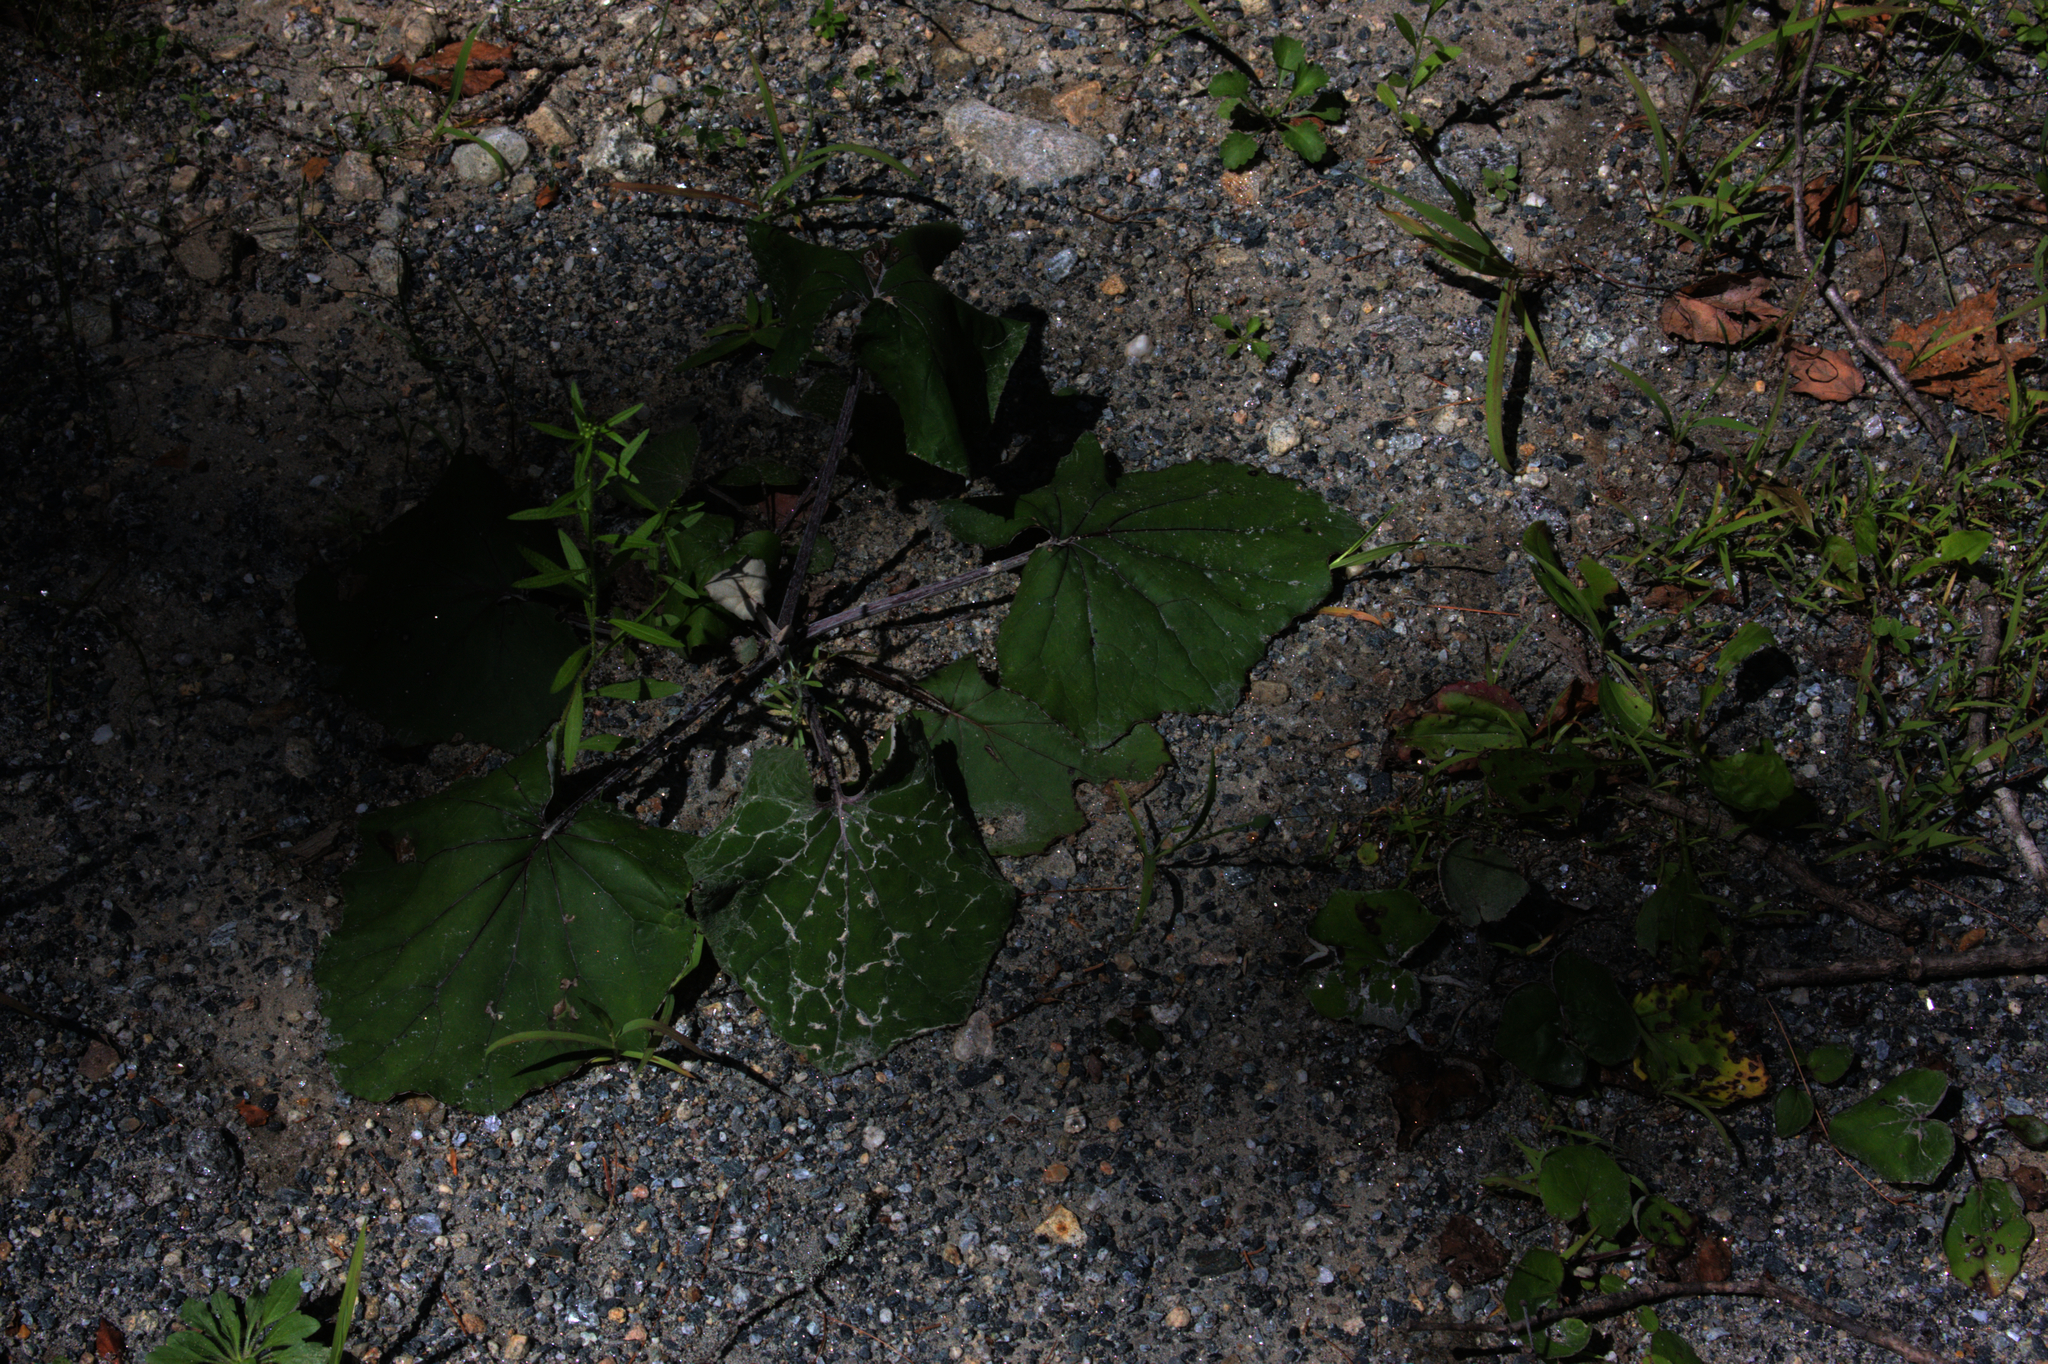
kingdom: Plantae
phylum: Tracheophyta
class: Magnoliopsida
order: Asterales
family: Asteraceae
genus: Tussilago
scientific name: Tussilago farfara
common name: Coltsfoot
